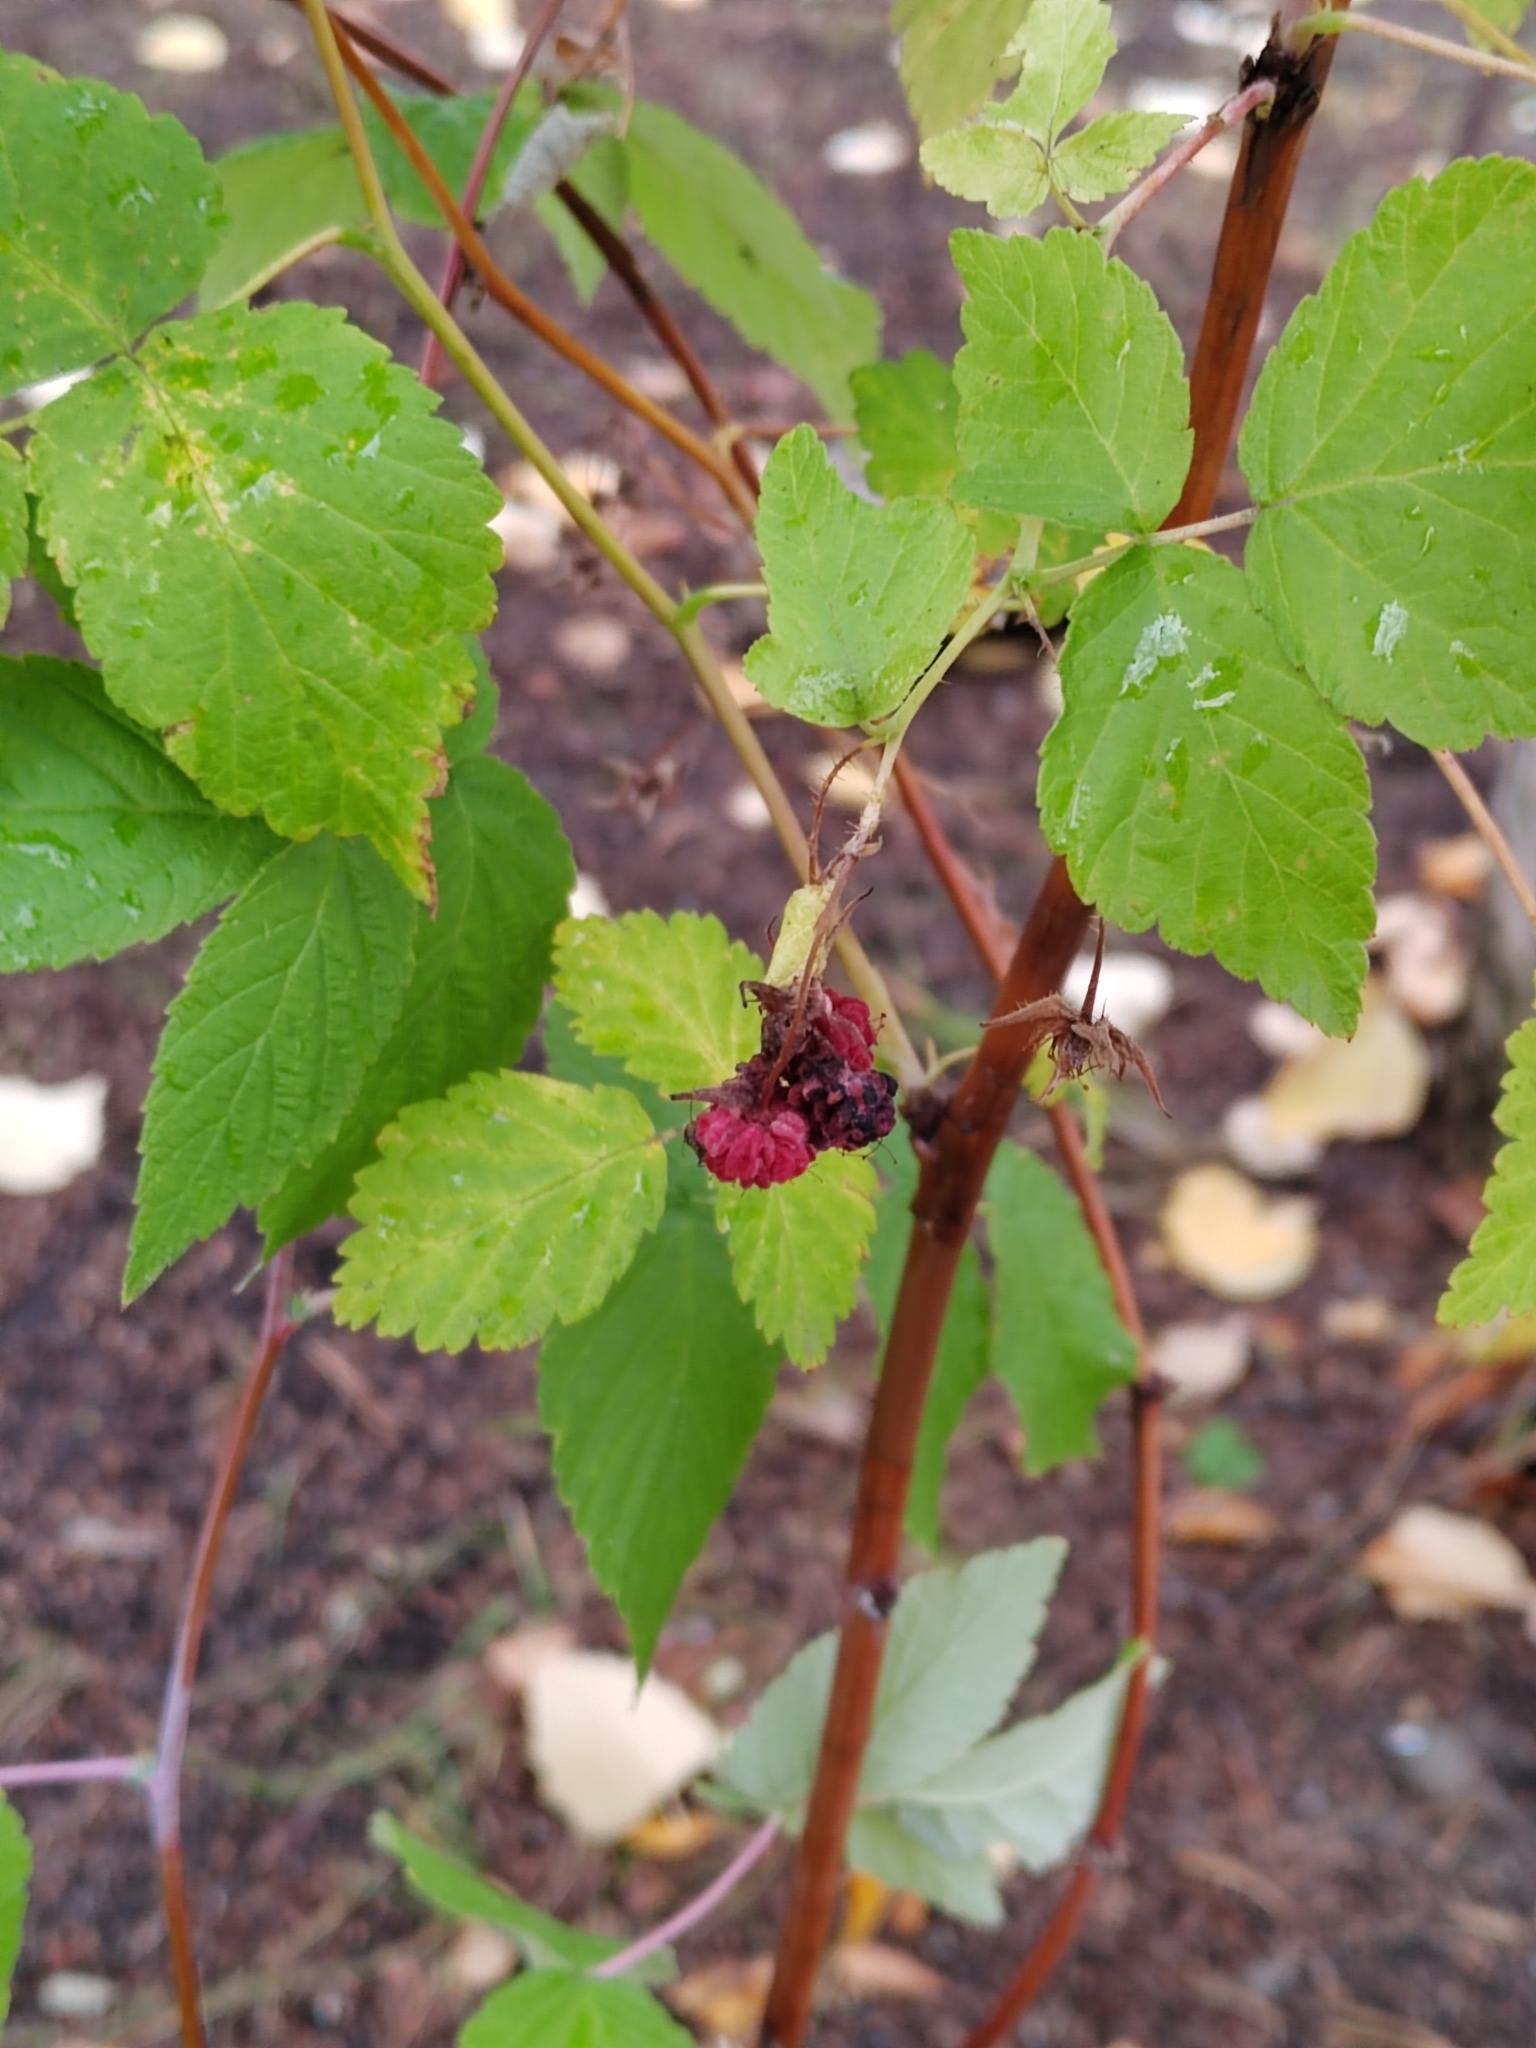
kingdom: Plantae
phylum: Tracheophyta
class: Magnoliopsida
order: Rosales
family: Rosaceae
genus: Rubus
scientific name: Rubus idaeus
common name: Raspberry
